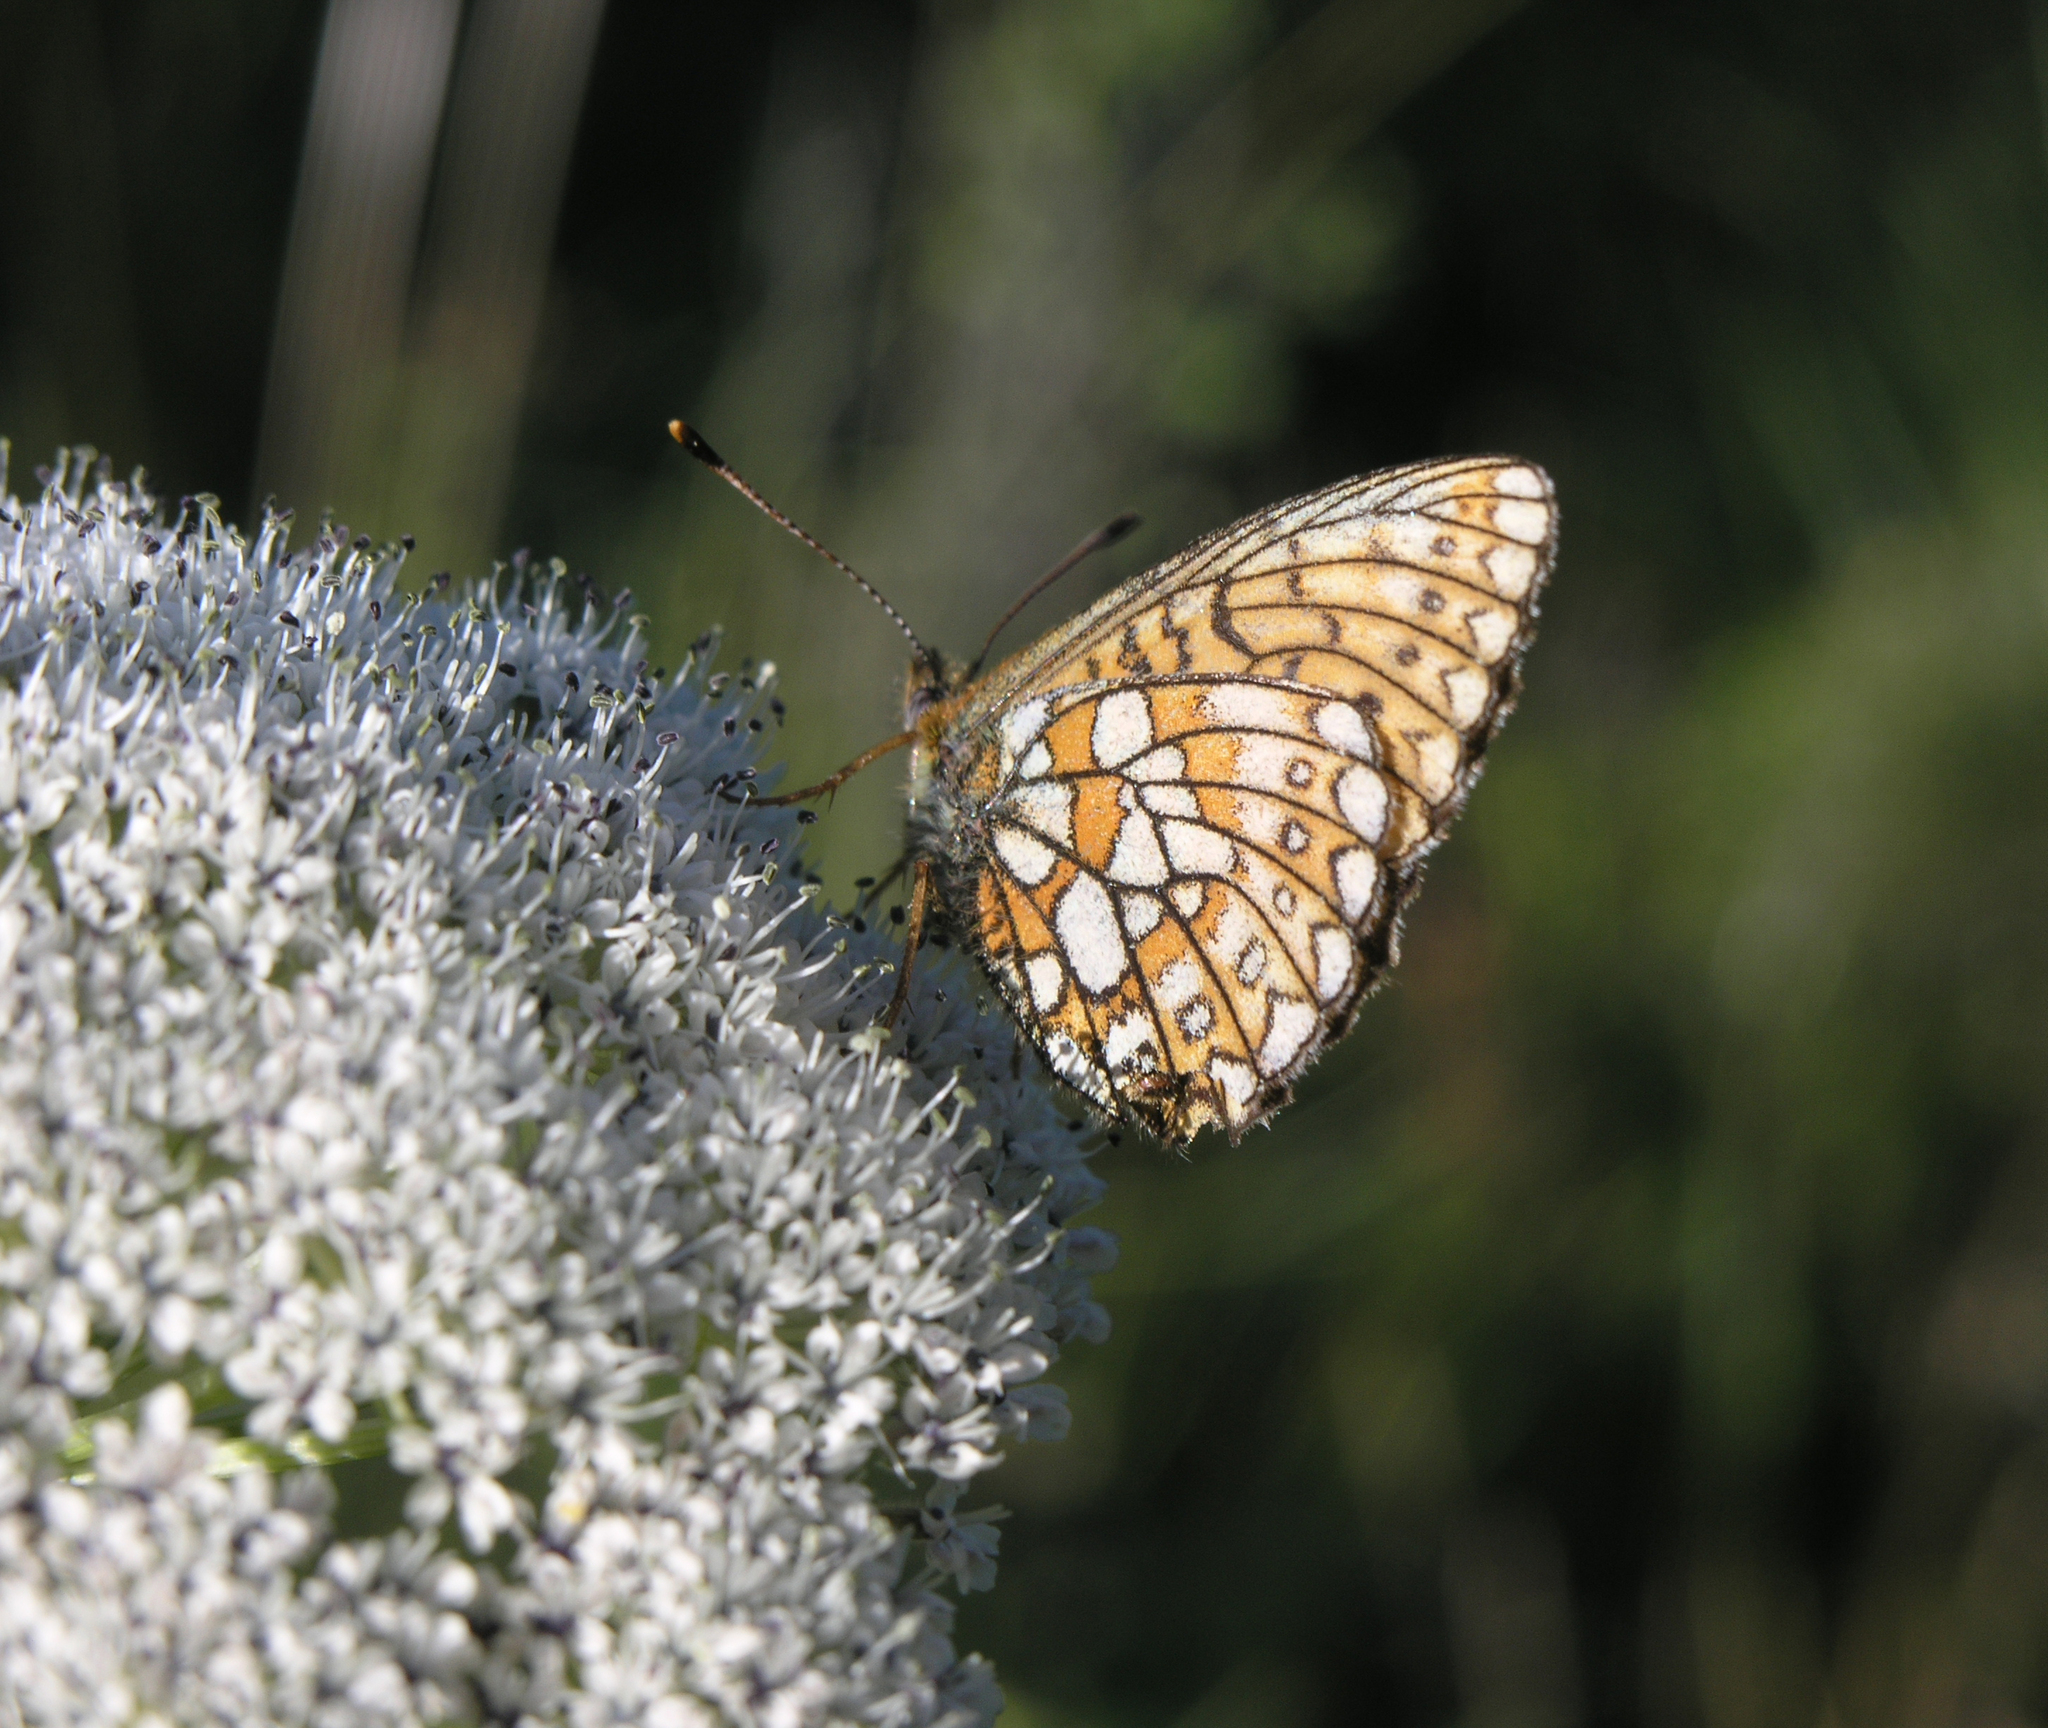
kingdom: Animalia
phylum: Arthropoda
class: Insecta
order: Lepidoptera
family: Nymphalidae
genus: Boloria
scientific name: Boloria eunomia
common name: Bog fritillary
